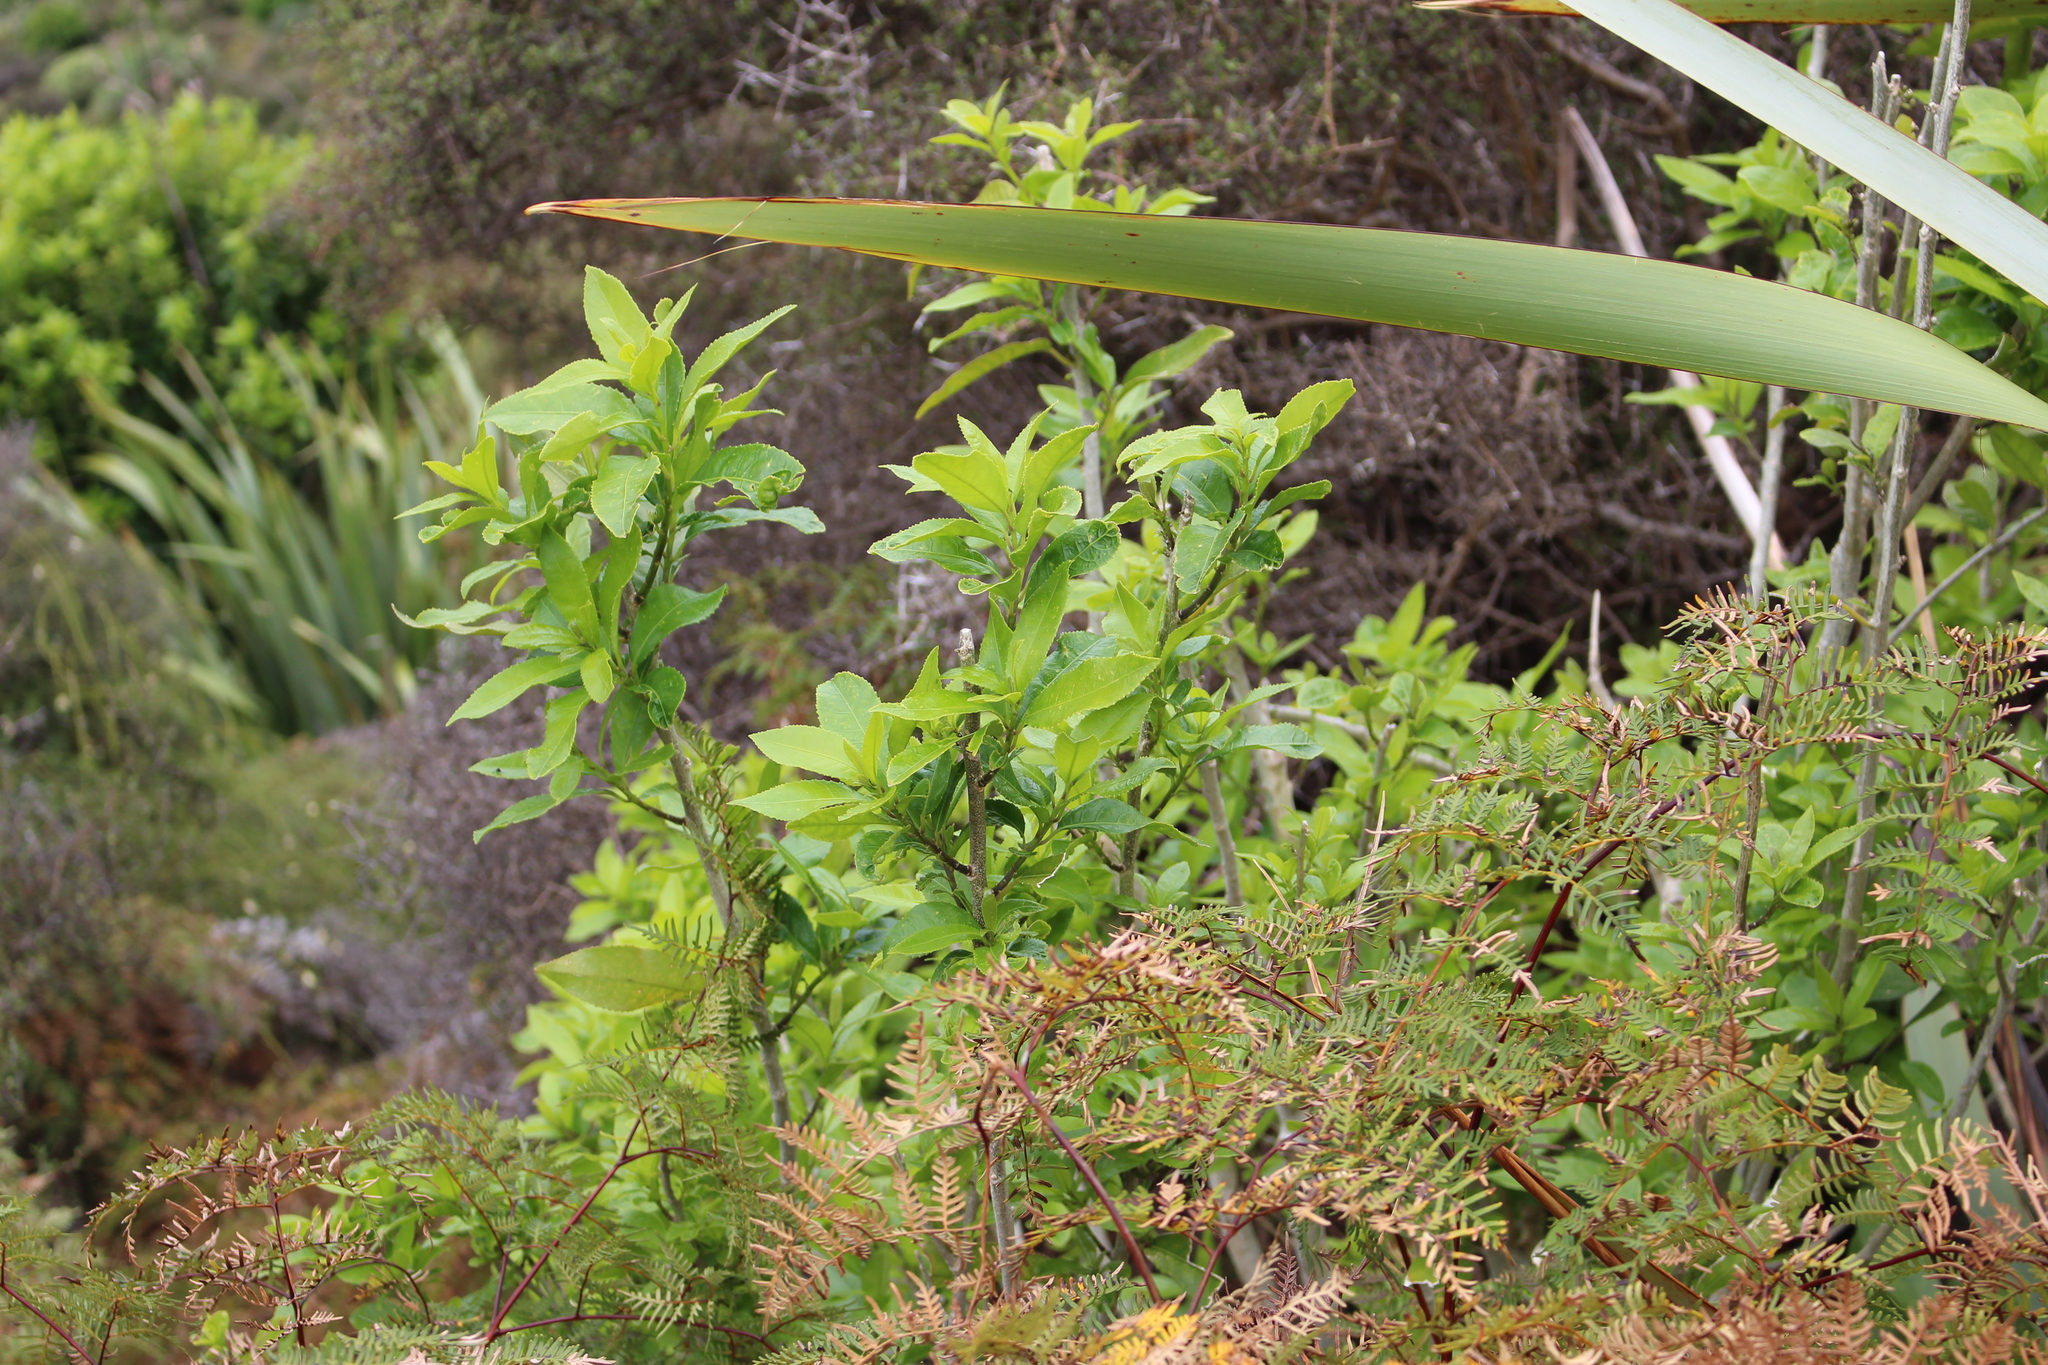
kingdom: Plantae
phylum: Tracheophyta
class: Magnoliopsida
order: Malpighiales
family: Violaceae
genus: Melicytus
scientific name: Melicytus ramiflorus
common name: Mahoe
